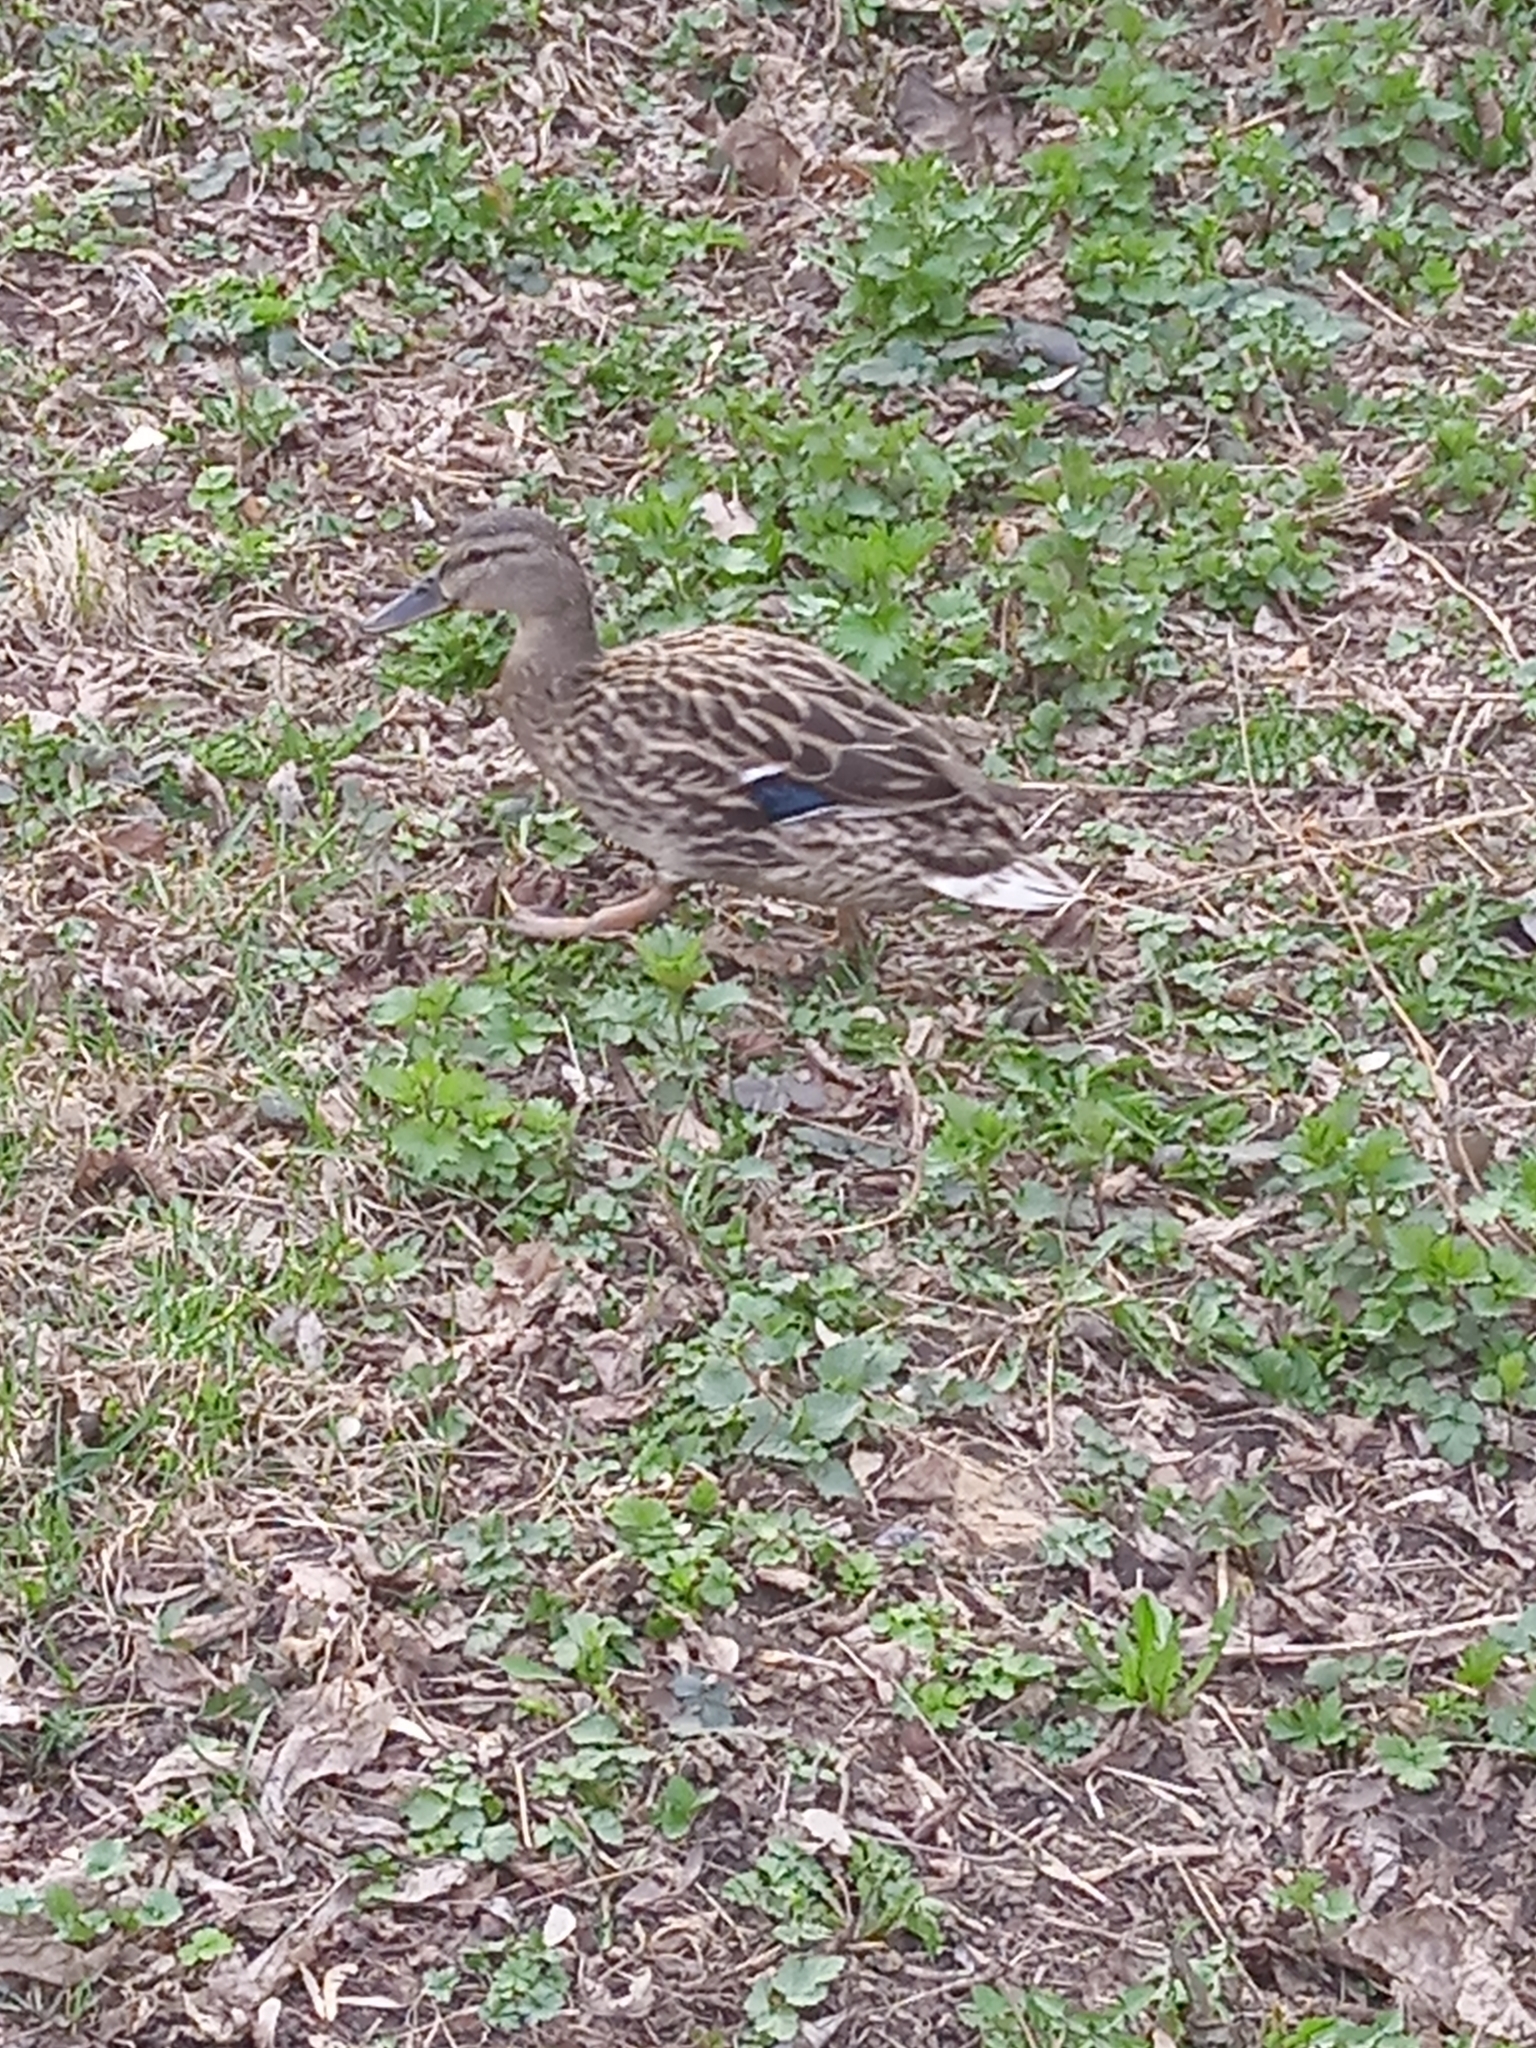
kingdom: Animalia
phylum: Chordata
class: Aves
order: Anseriformes
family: Anatidae
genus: Anas
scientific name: Anas platyrhynchos
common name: Mallard
